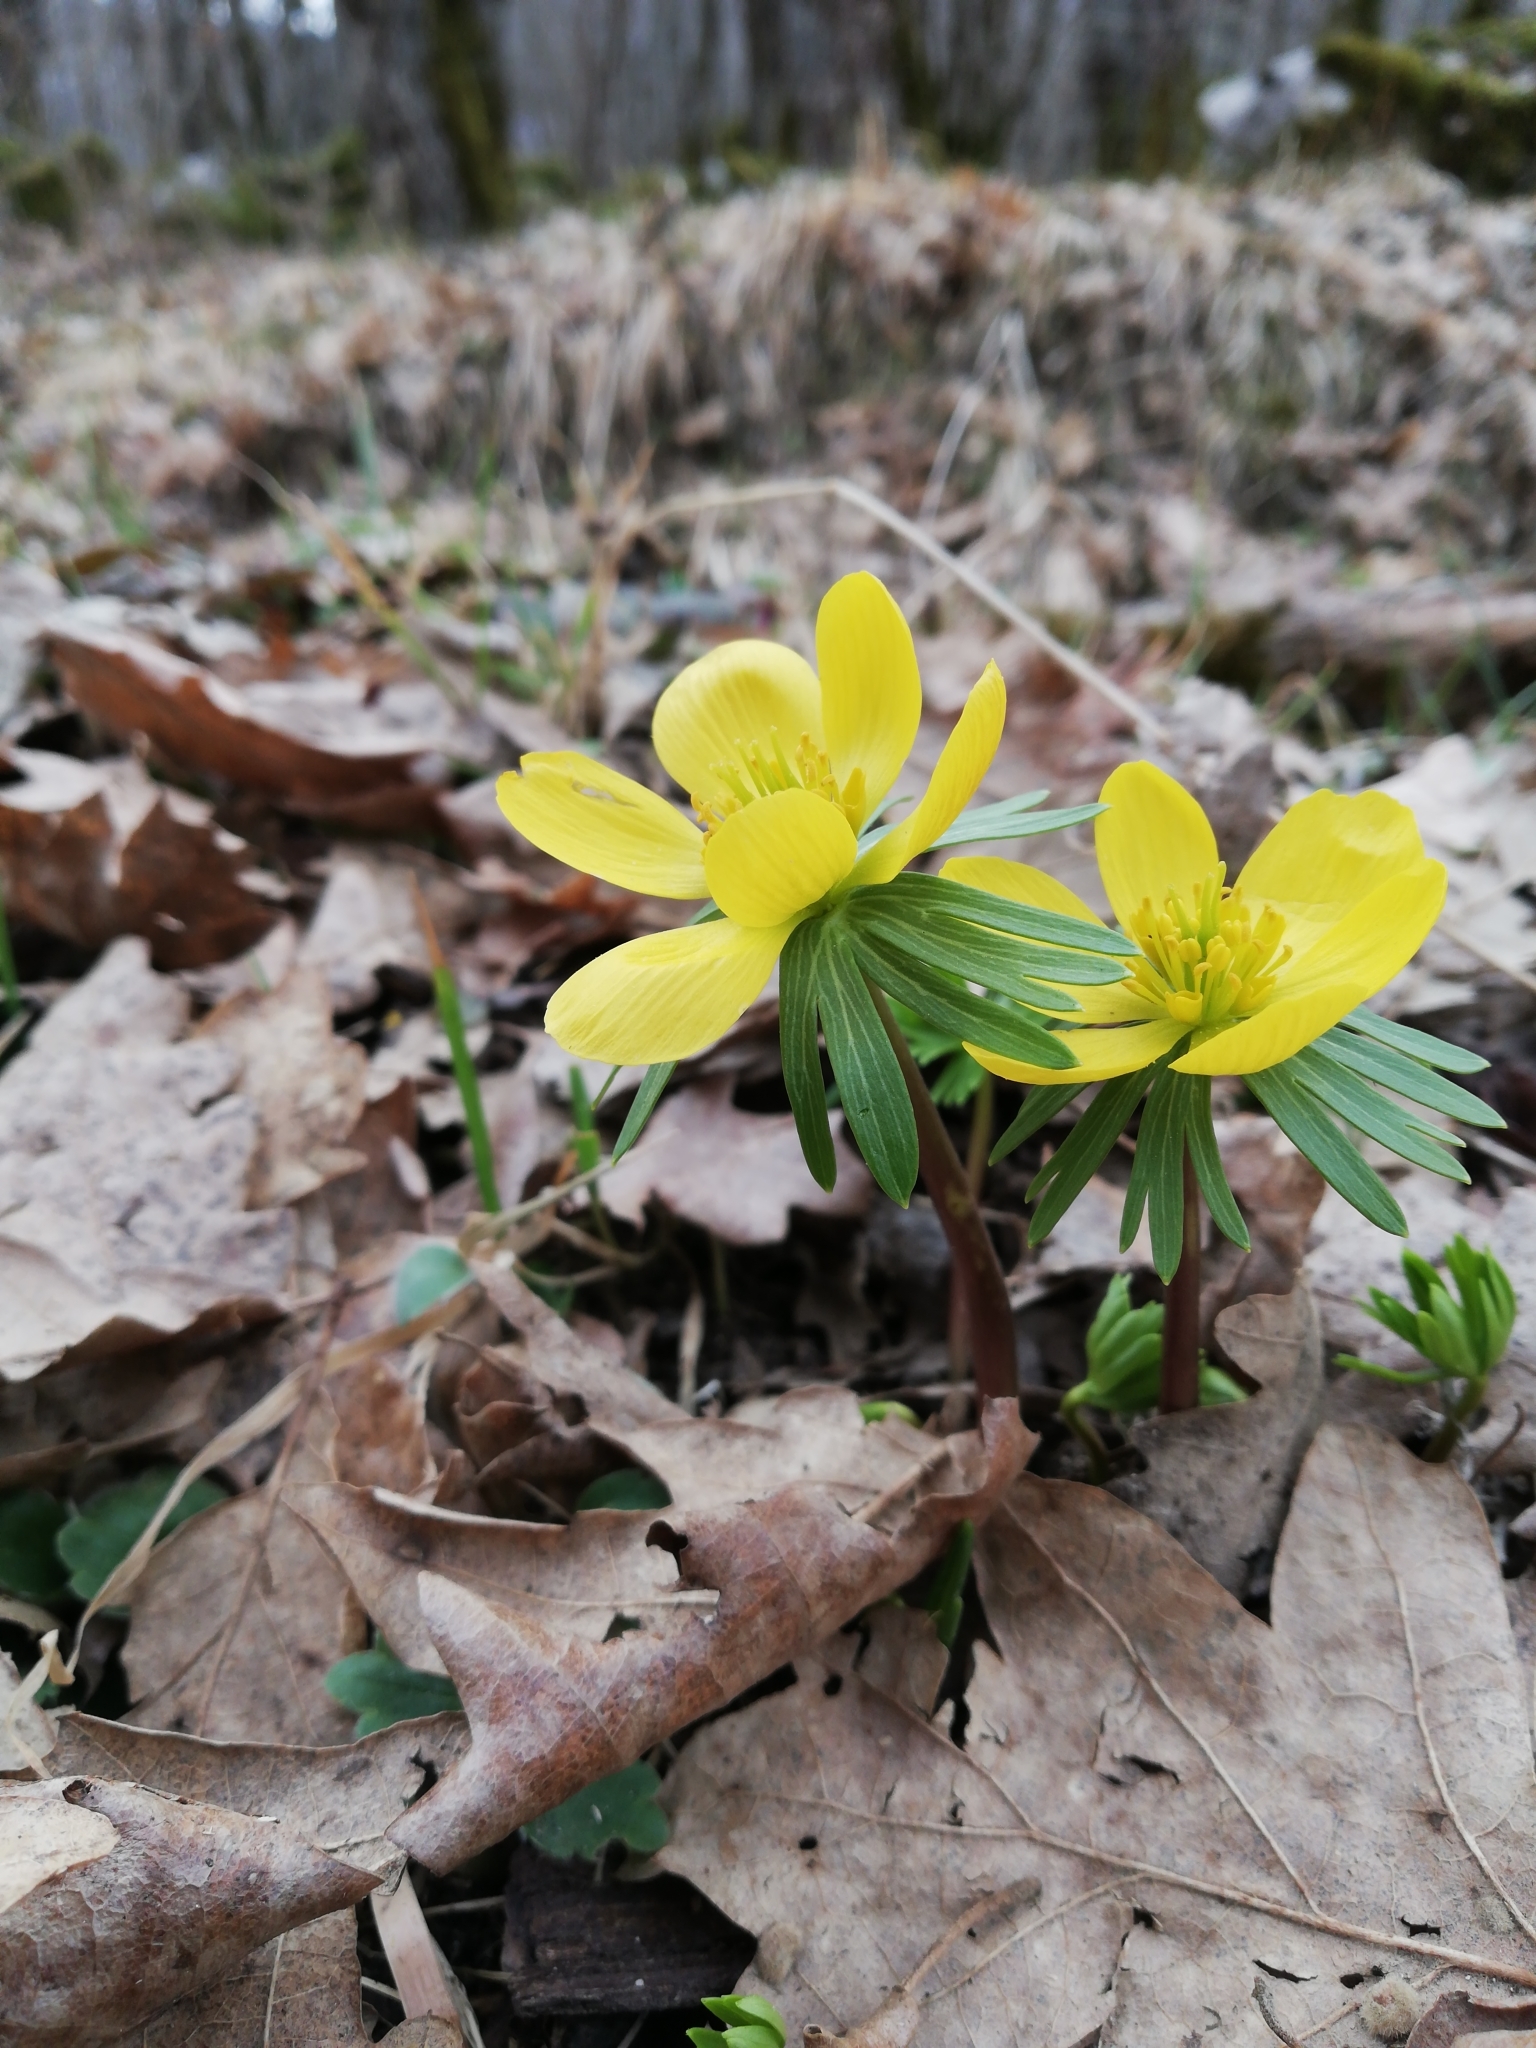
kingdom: Plantae
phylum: Tracheophyta
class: Magnoliopsida
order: Ranunculales
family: Ranunculaceae
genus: Eranthis
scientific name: Eranthis hyemalis
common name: Winter aconite
